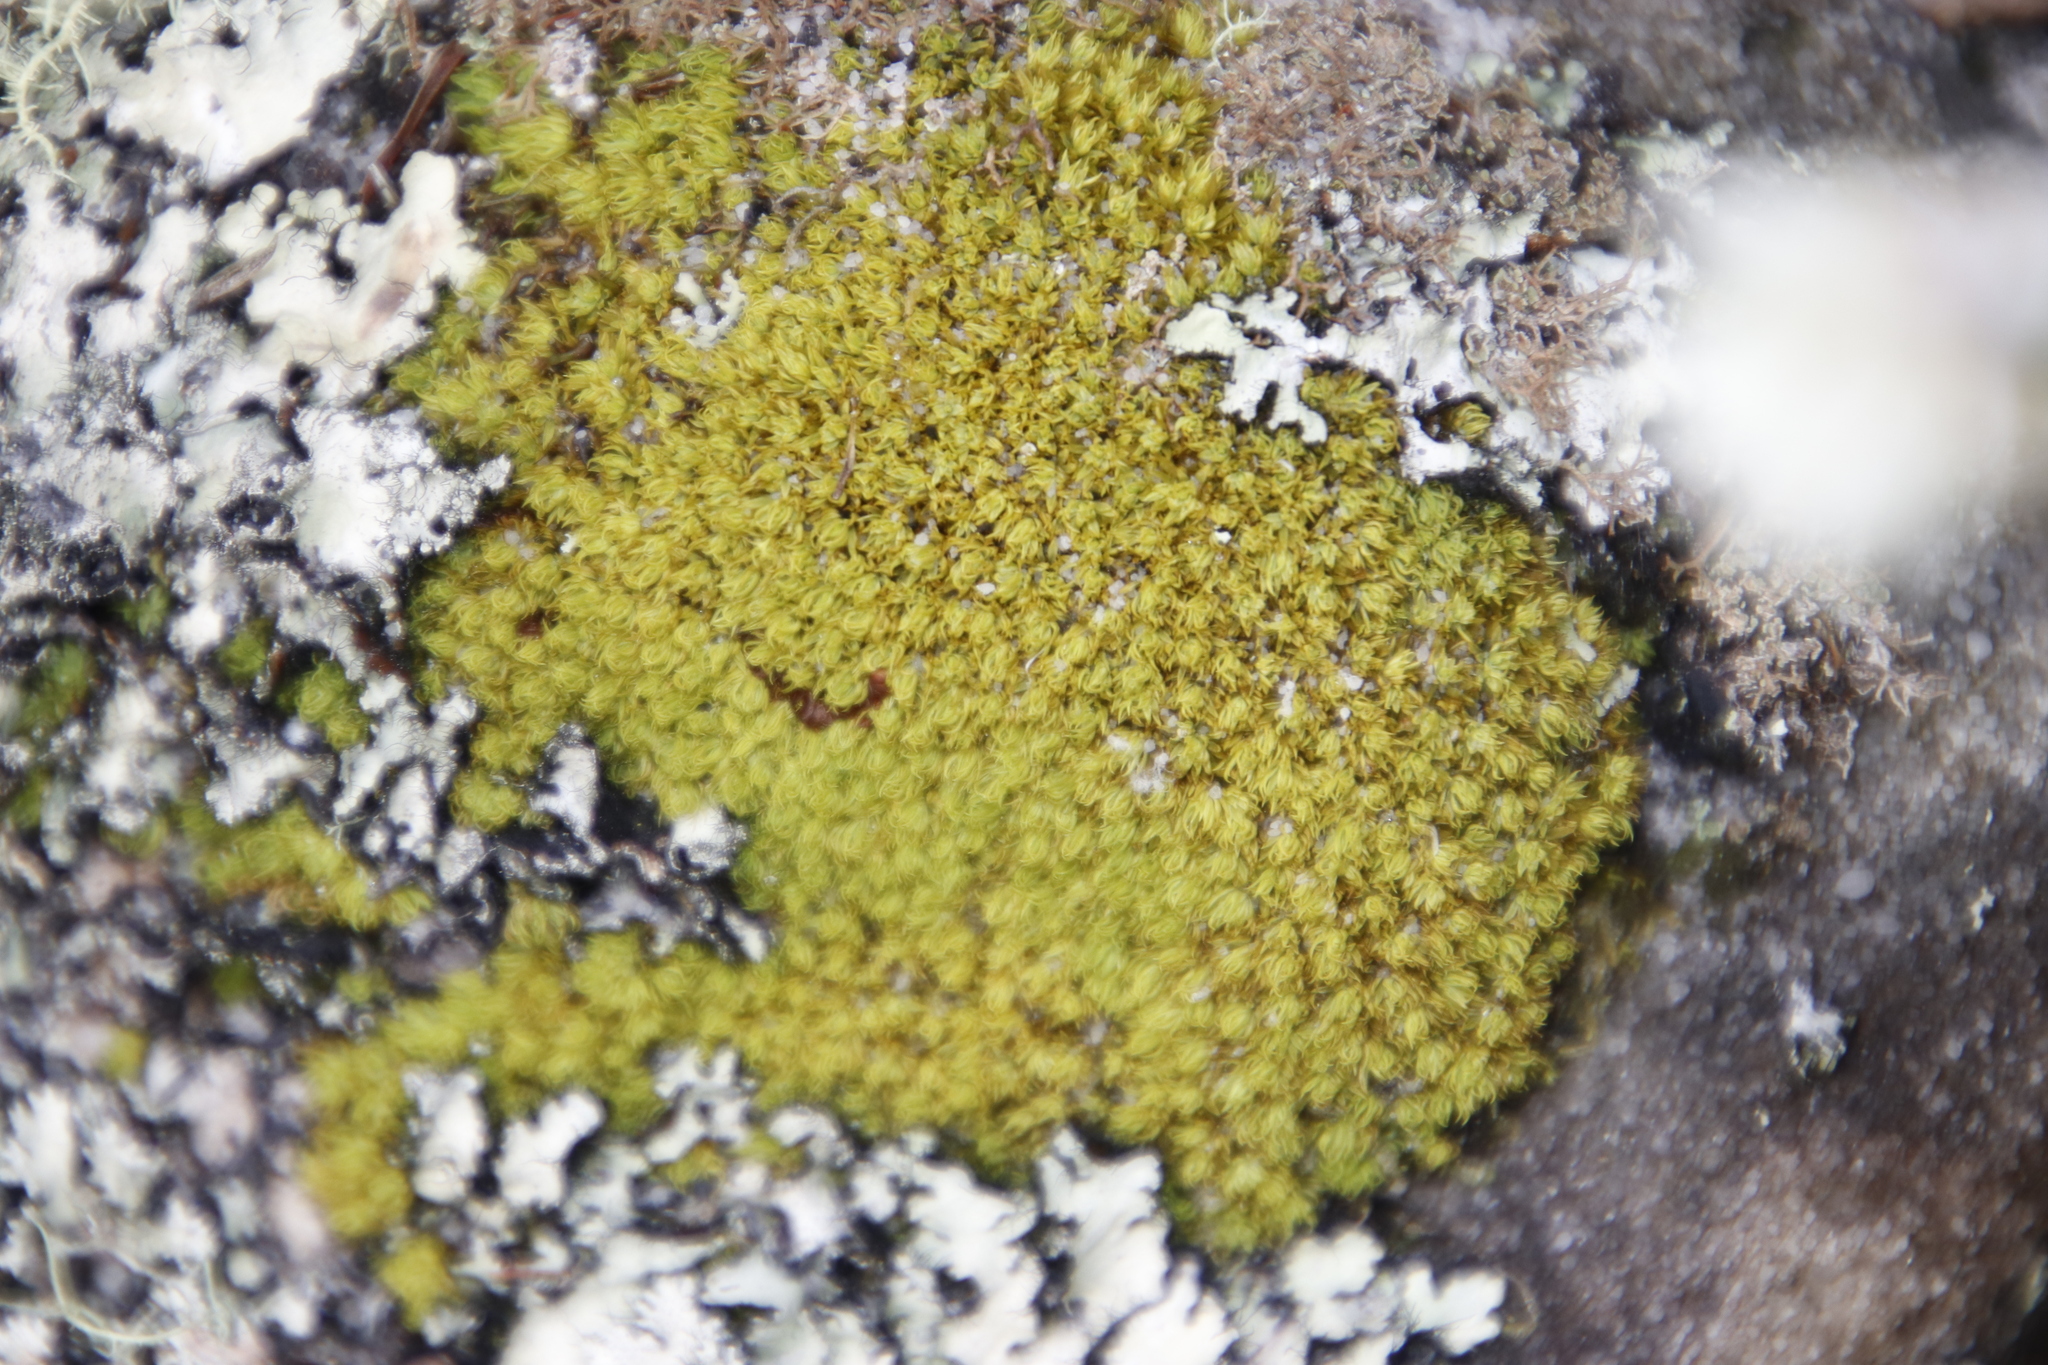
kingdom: Plantae
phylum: Bryophyta
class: Bryopsida
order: Dicranales
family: Hypodontiaceae
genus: Hypodontium
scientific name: Hypodontium pomiforme
